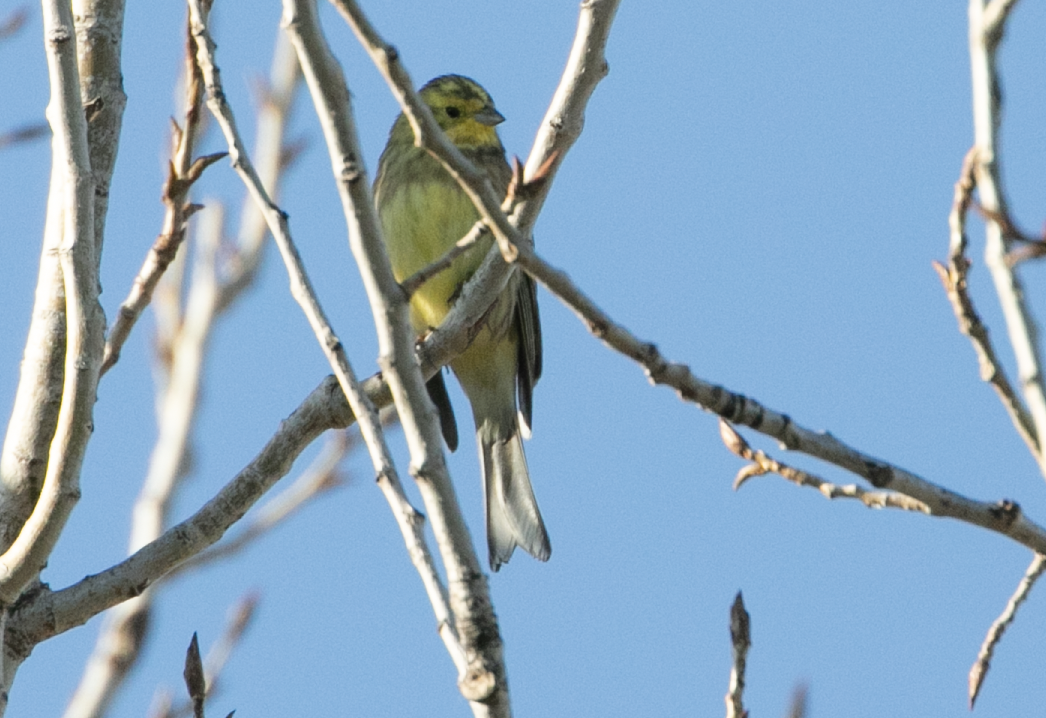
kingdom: Animalia
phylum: Chordata
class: Aves
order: Passeriformes
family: Emberizidae
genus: Emberiza
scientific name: Emberiza citrinella
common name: Yellowhammer
